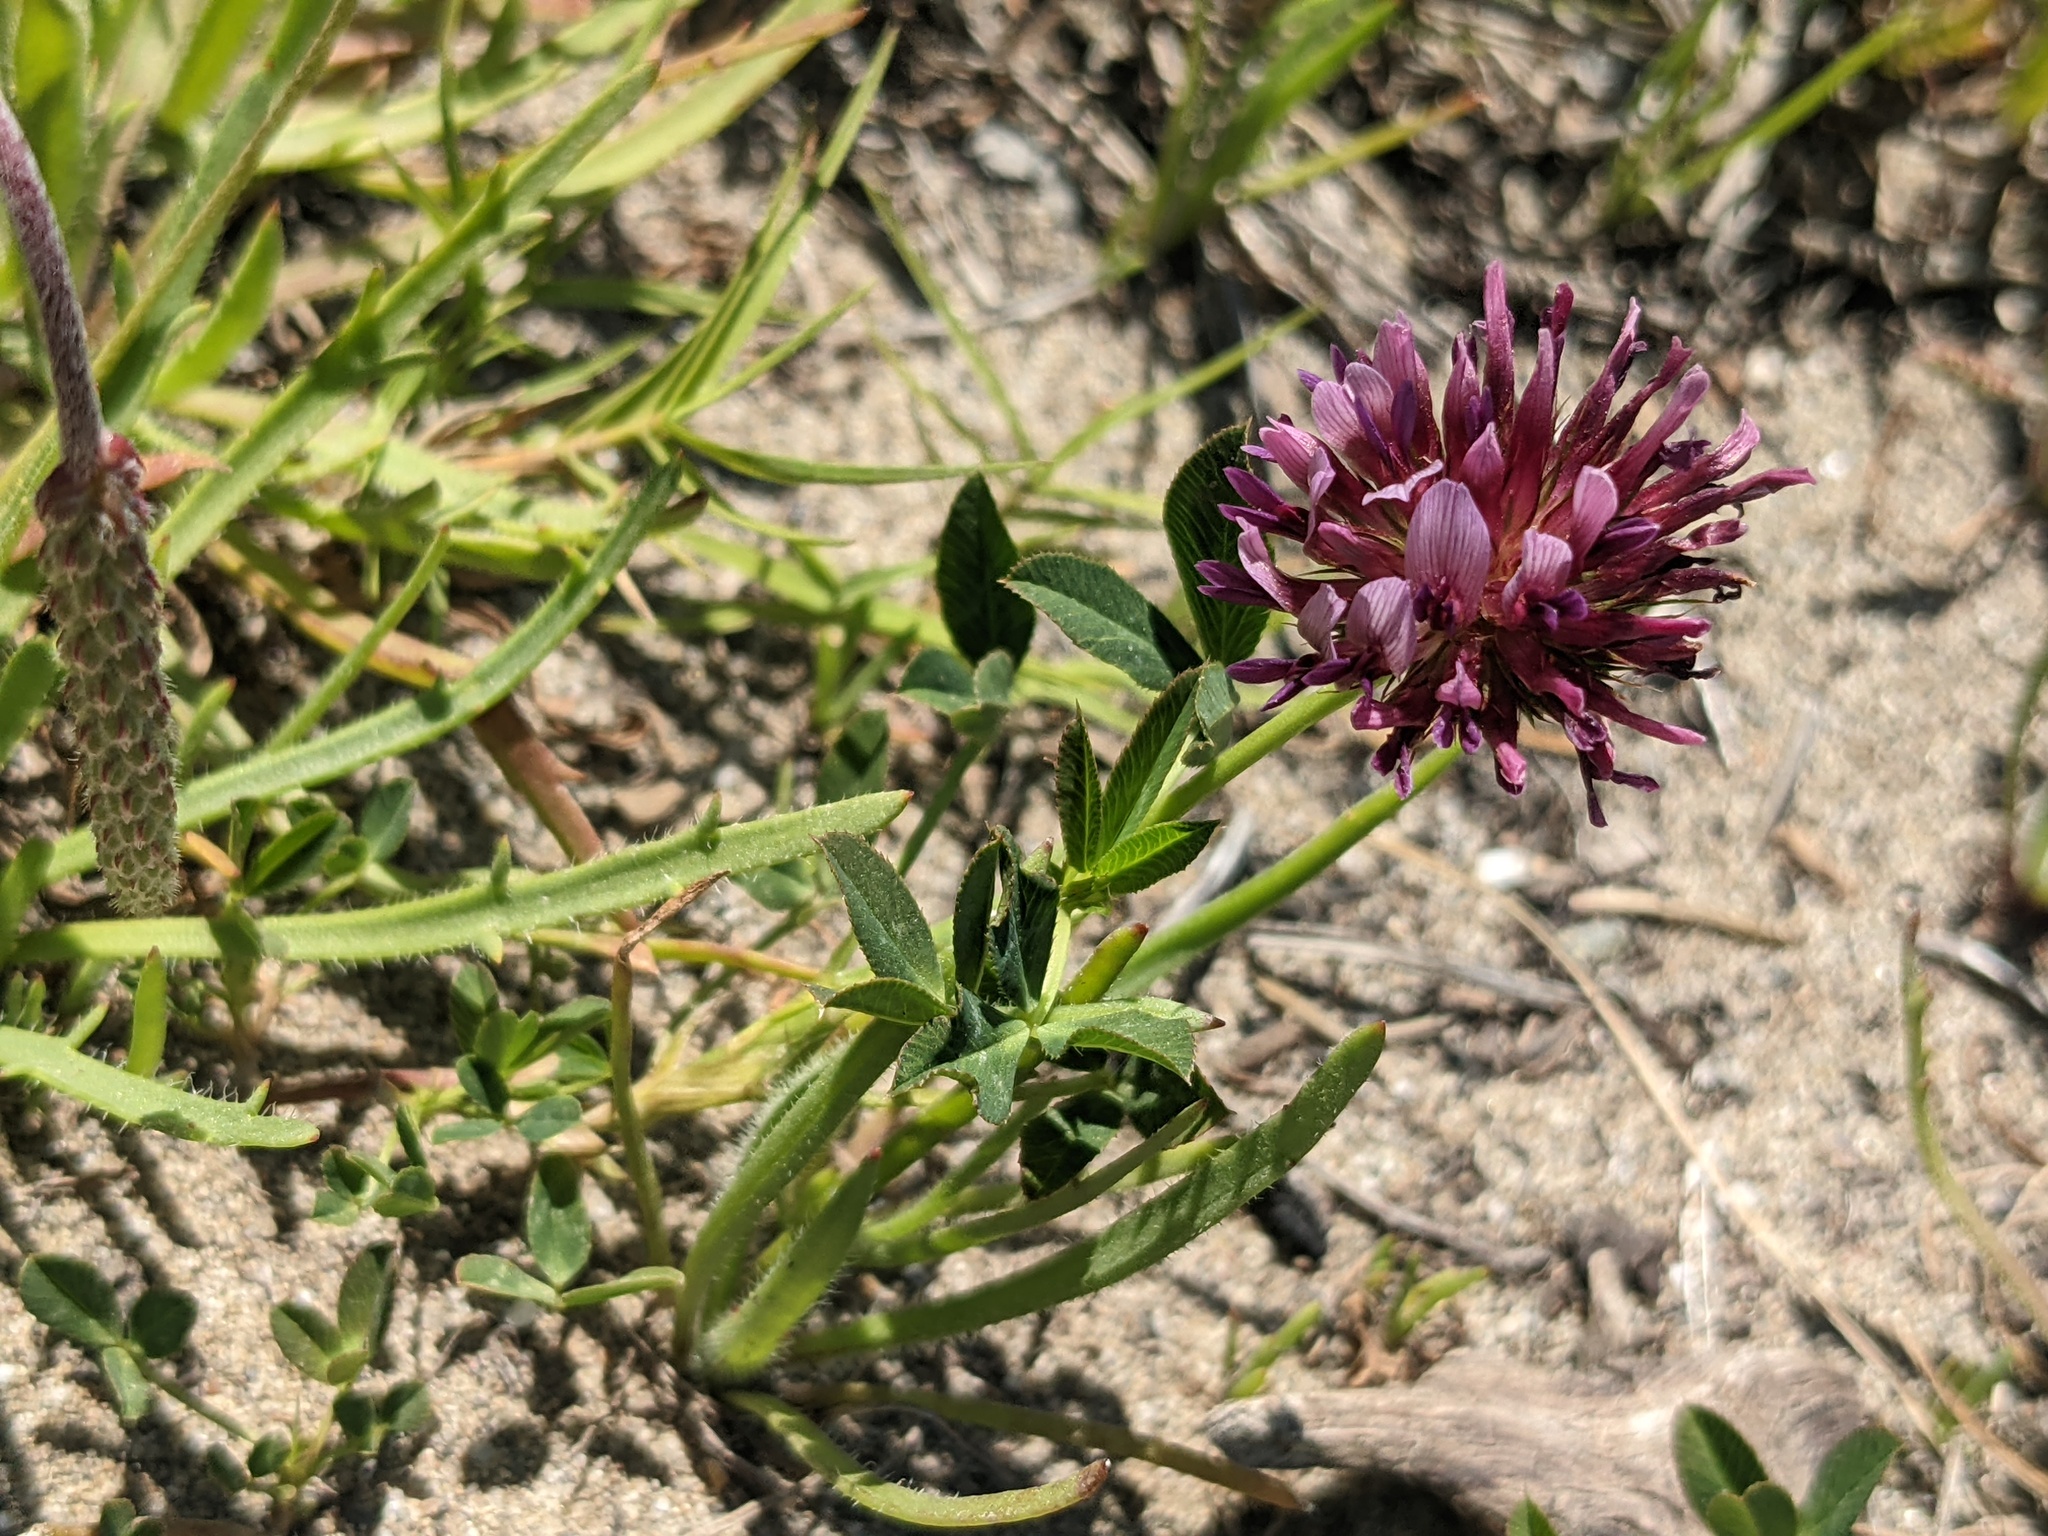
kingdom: Plantae
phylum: Tracheophyta
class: Magnoliopsida
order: Fabales
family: Fabaceae
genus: Trifolium
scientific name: Trifolium wormskioldii
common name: Springbank clover
